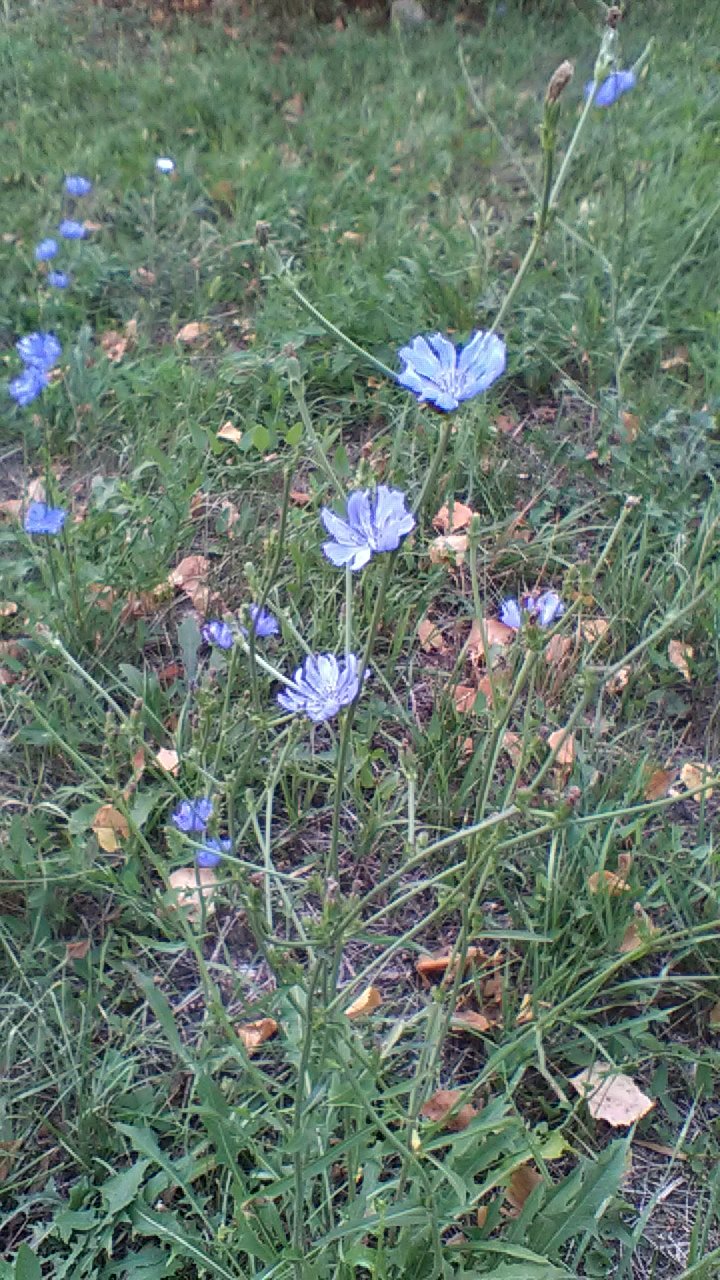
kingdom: Plantae
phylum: Tracheophyta
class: Magnoliopsida
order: Asterales
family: Asteraceae
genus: Cichorium
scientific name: Cichorium intybus
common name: Chicory
